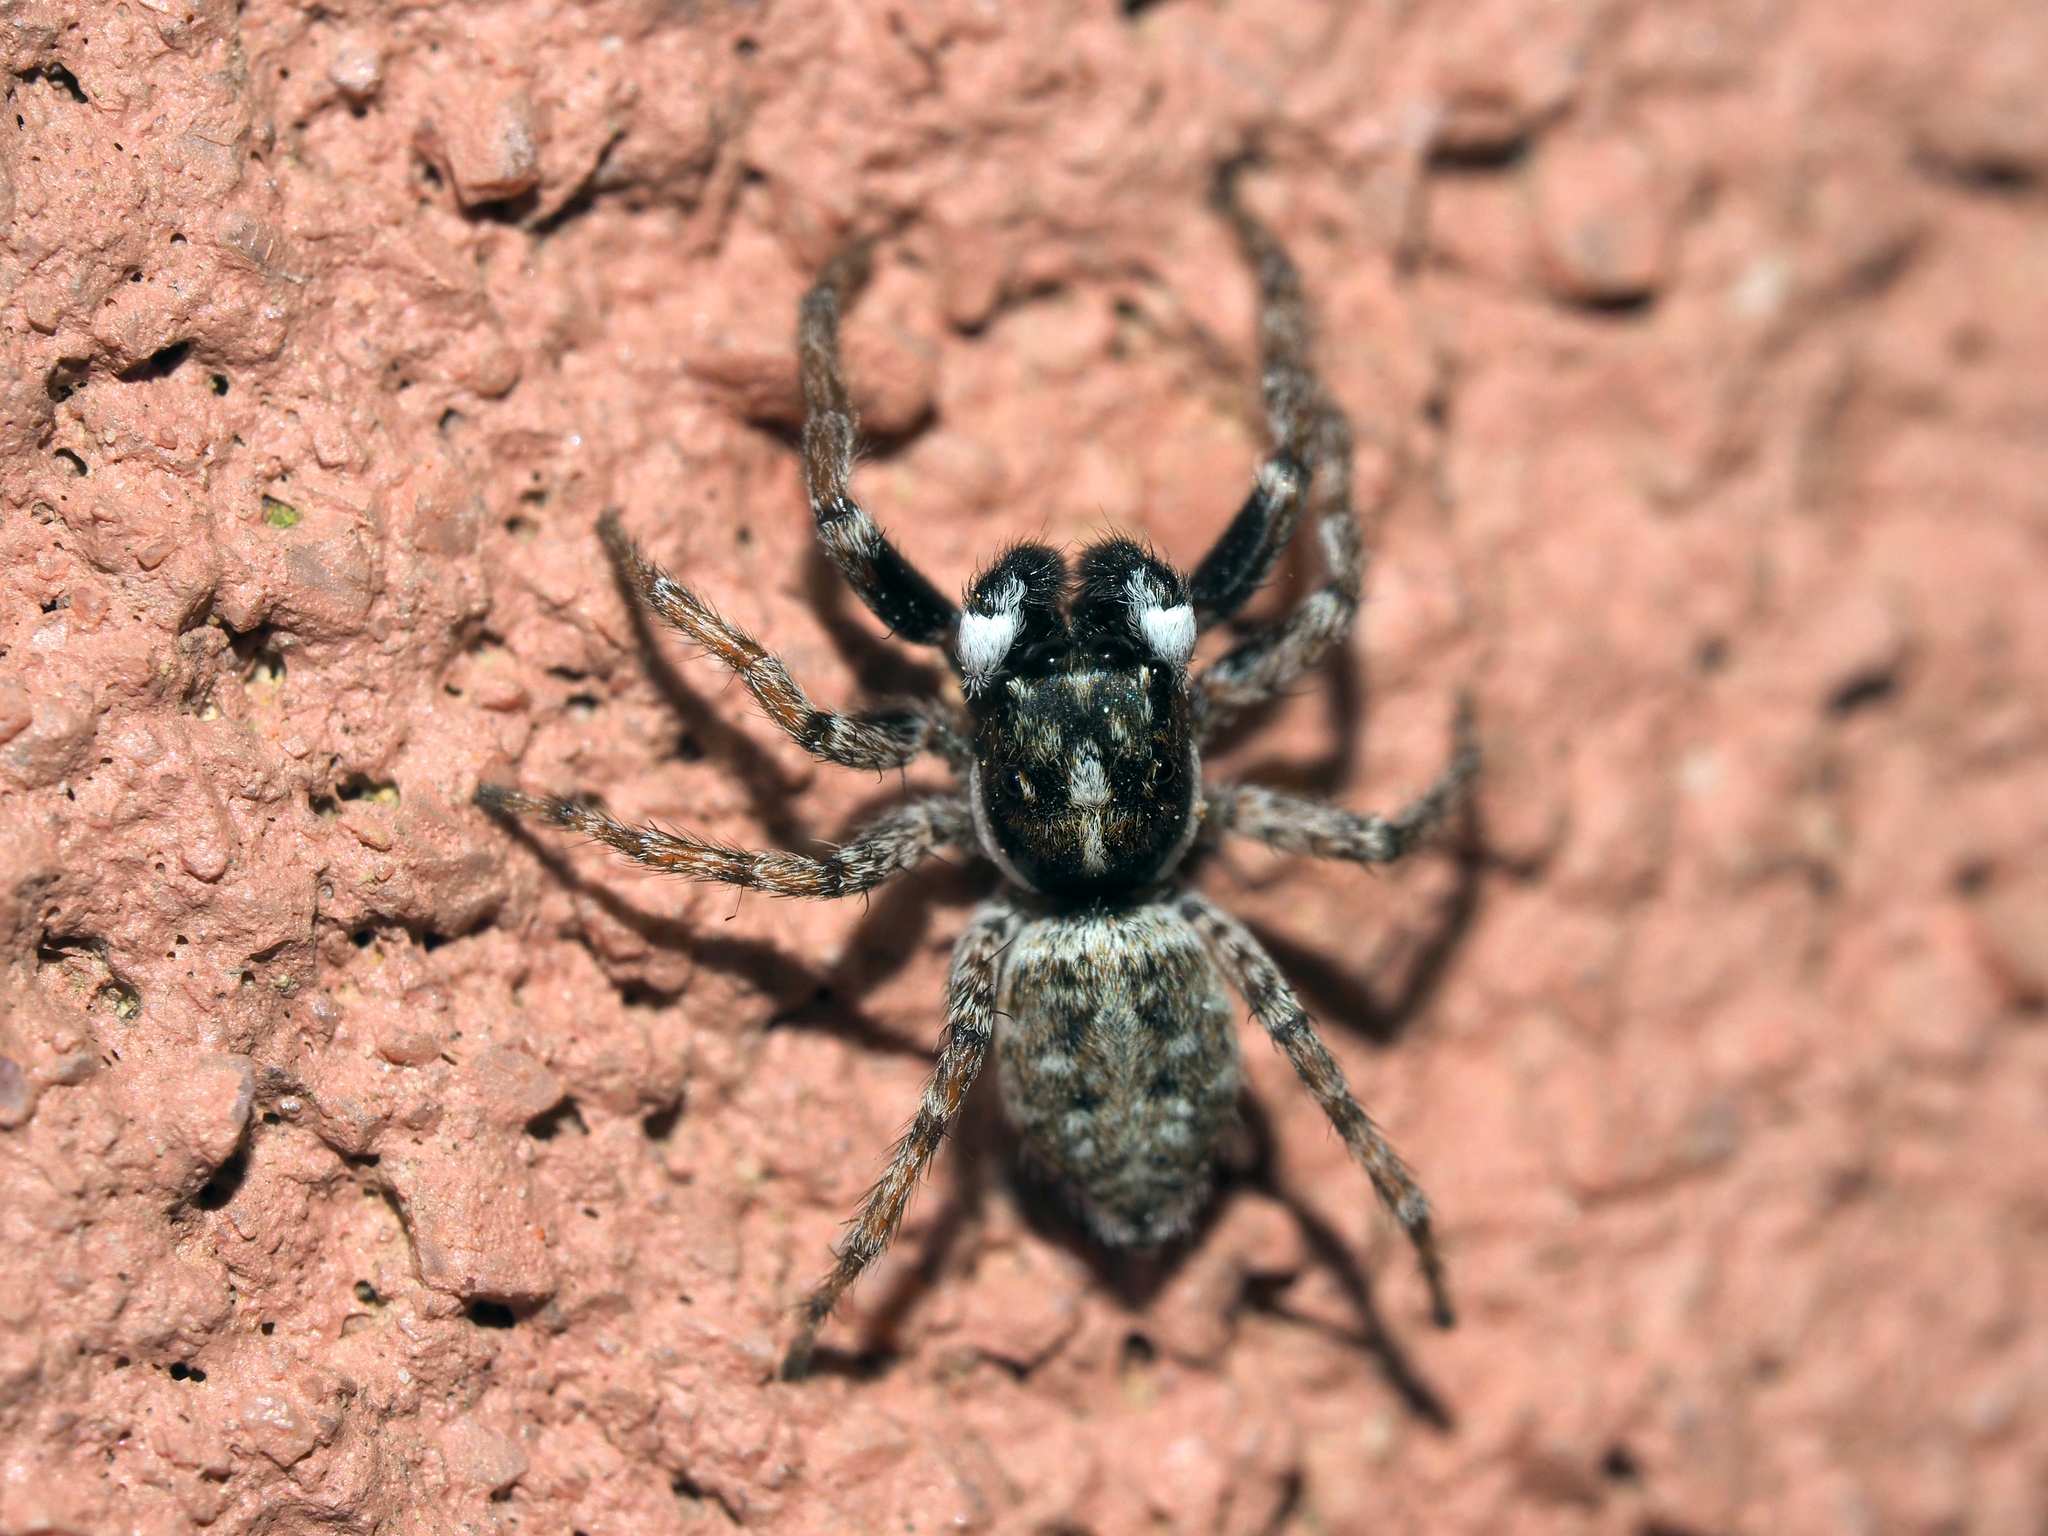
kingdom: Animalia
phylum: Arthropoda
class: Arachnida
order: Araneae
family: Salticidae
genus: Menemerus
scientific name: Menemerus semilimbatus
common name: Jumping spider
